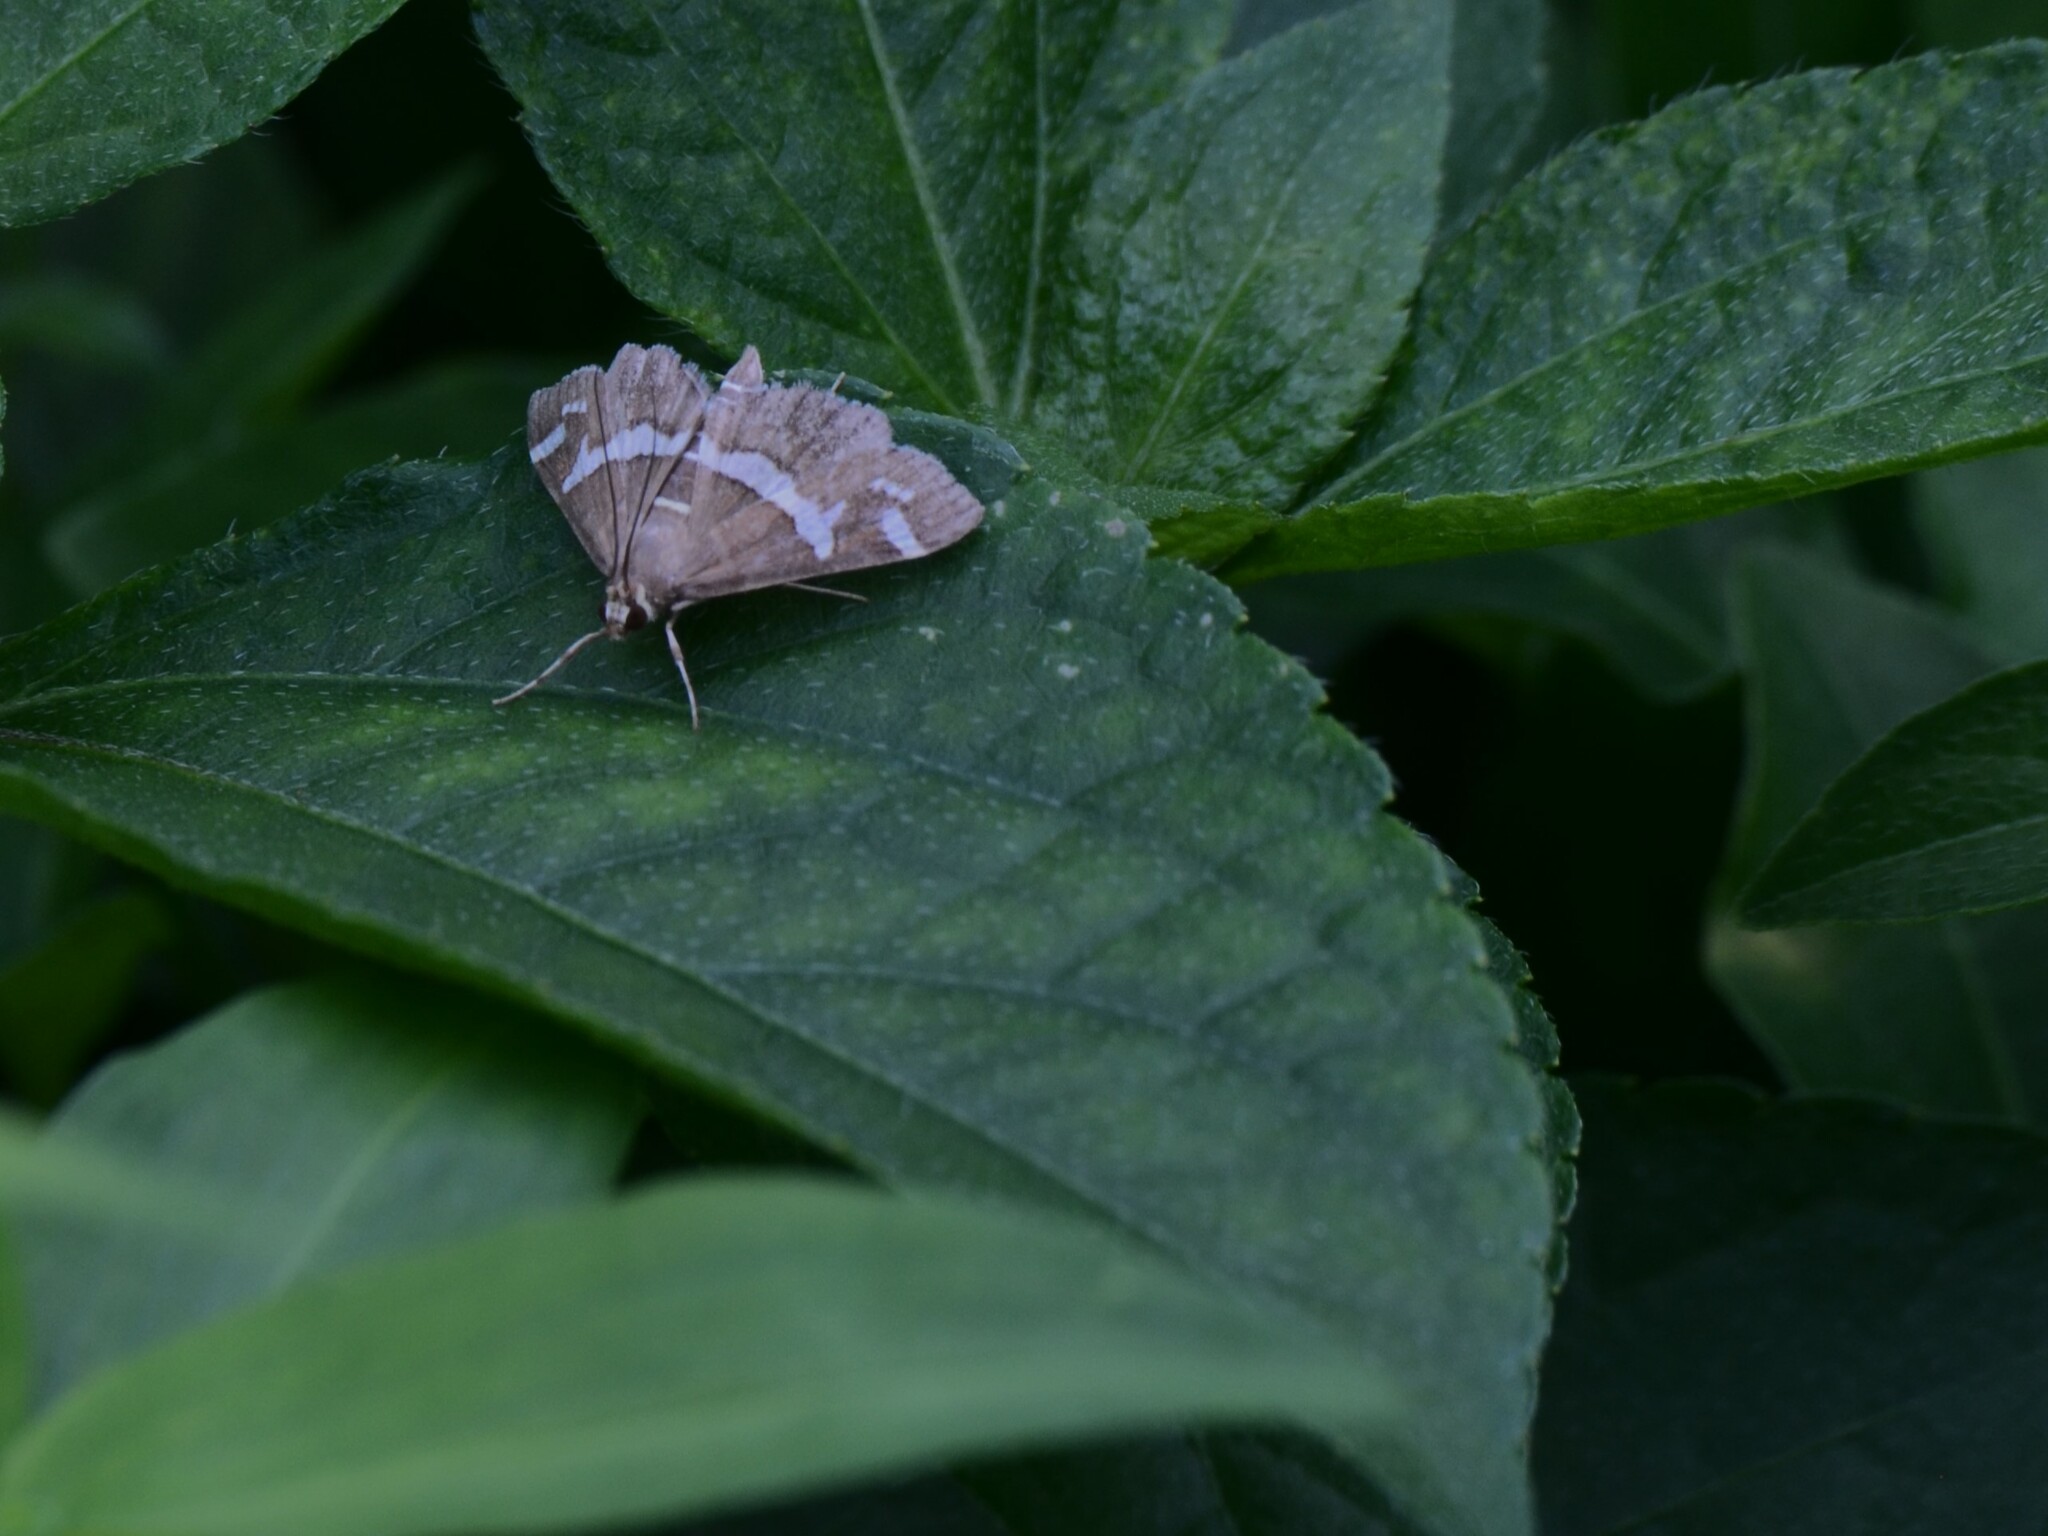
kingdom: Animalia
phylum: Arthropoda
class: Insecta
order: Lepidoptera
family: Crambidae
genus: Spoladea
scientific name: Spoladea recurvalis
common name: Beet webworm moth
